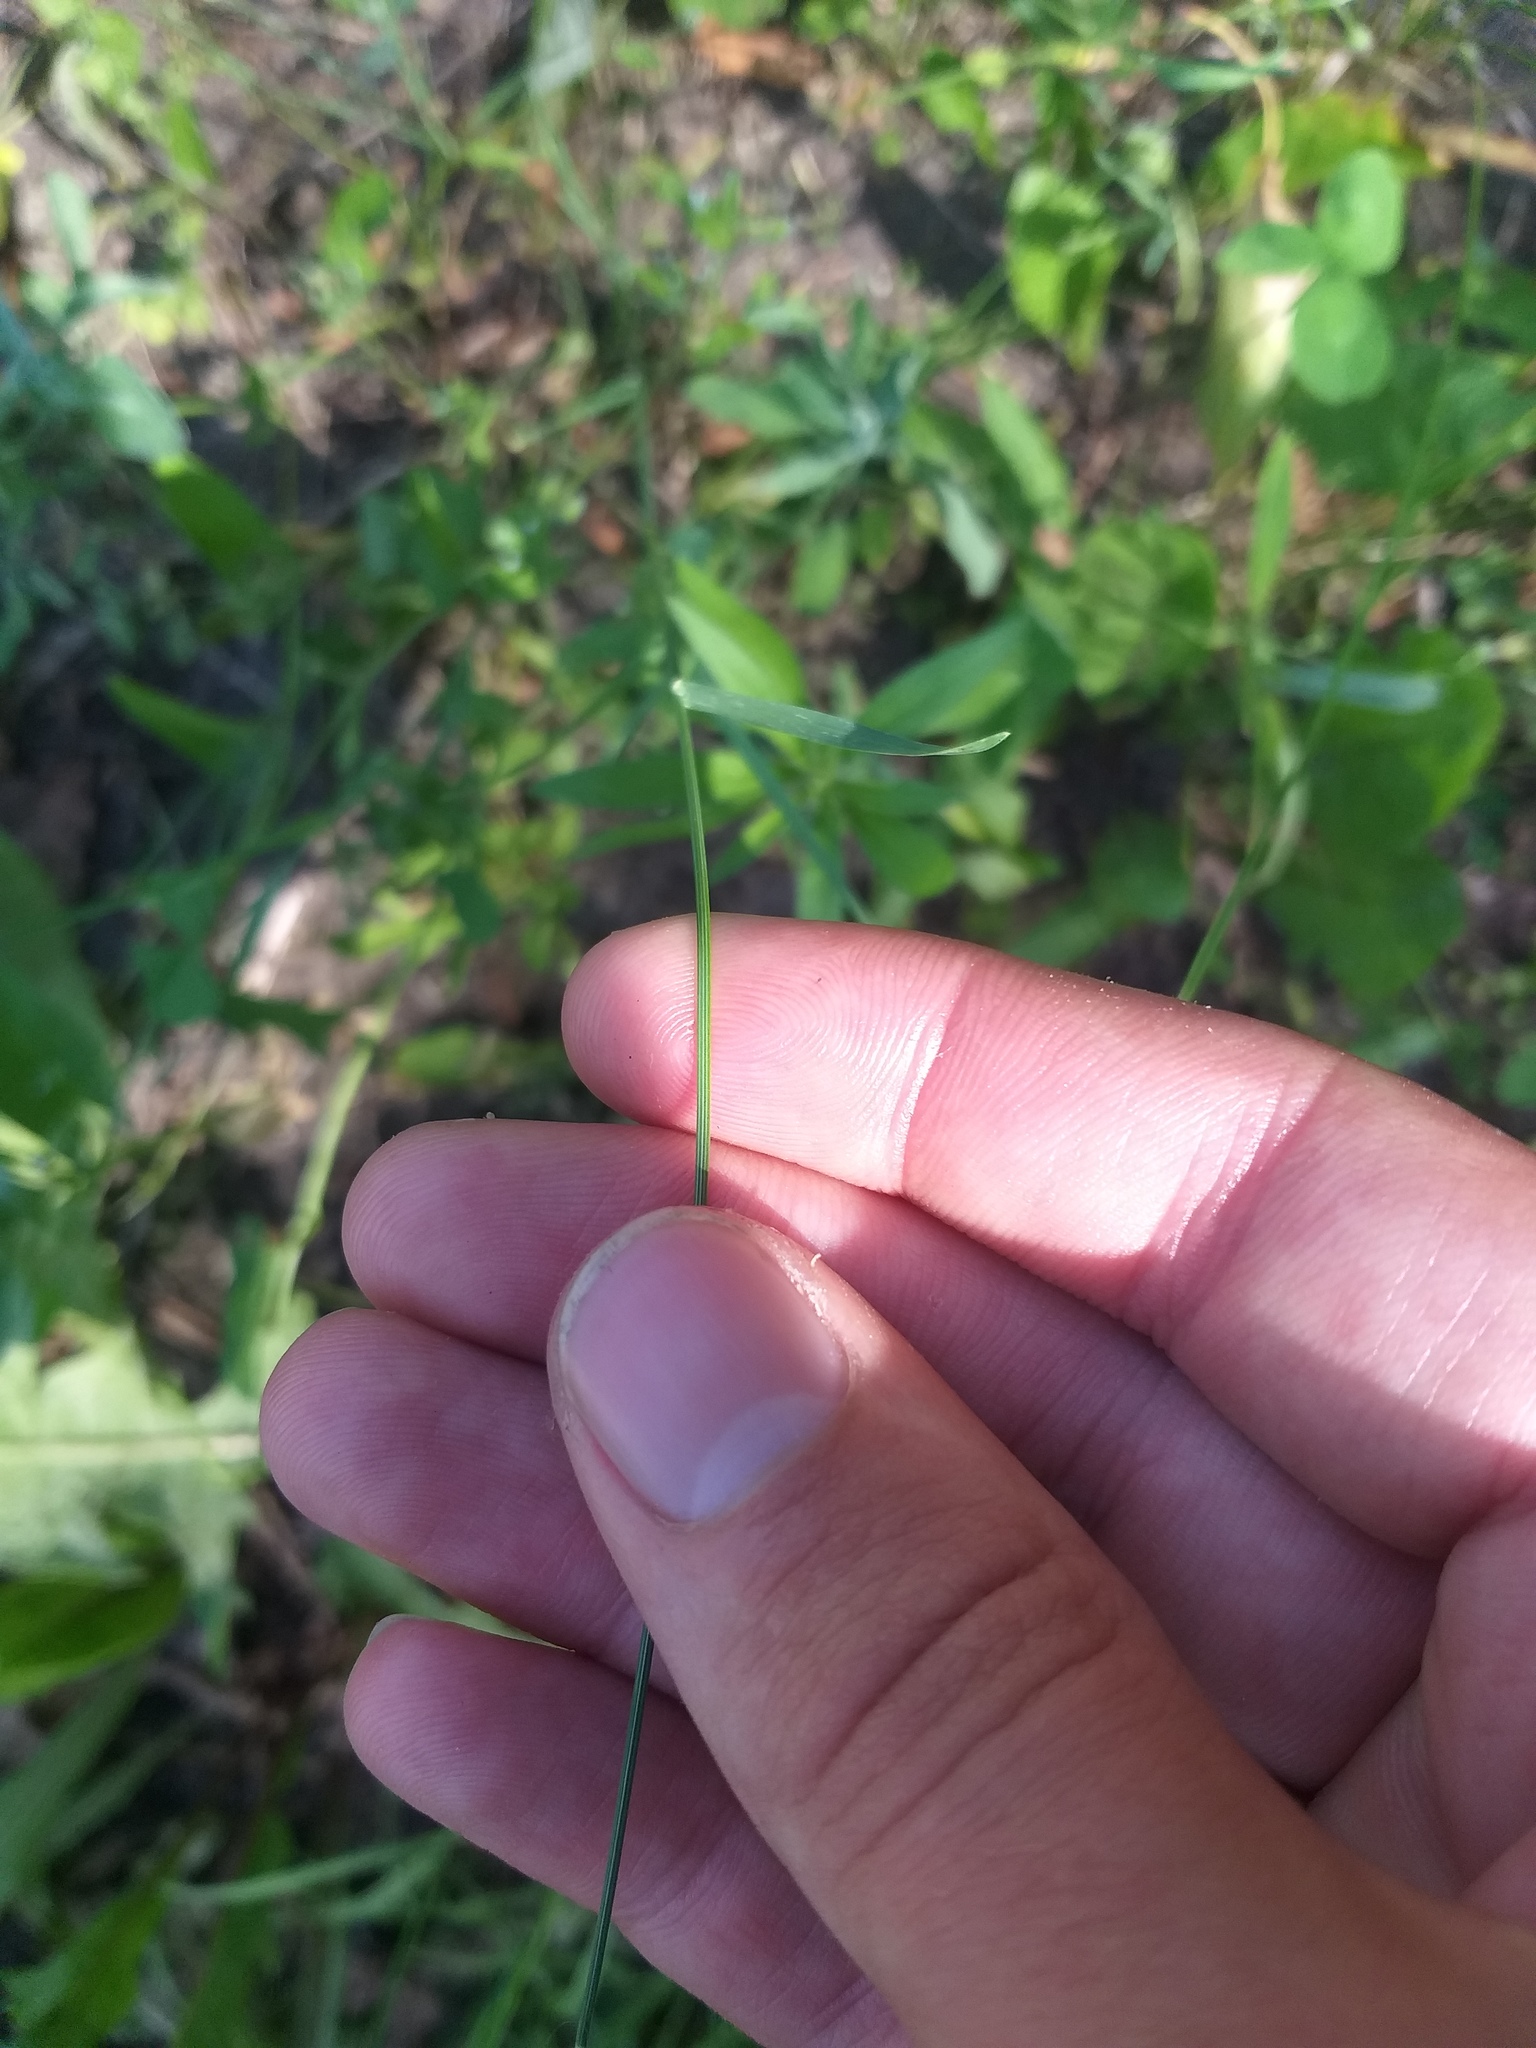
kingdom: Plantae
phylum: Tracheophyta
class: Liliopsida
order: Poales
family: Poaceae
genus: Poa
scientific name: Poa compressa
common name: Canada bluegrass
